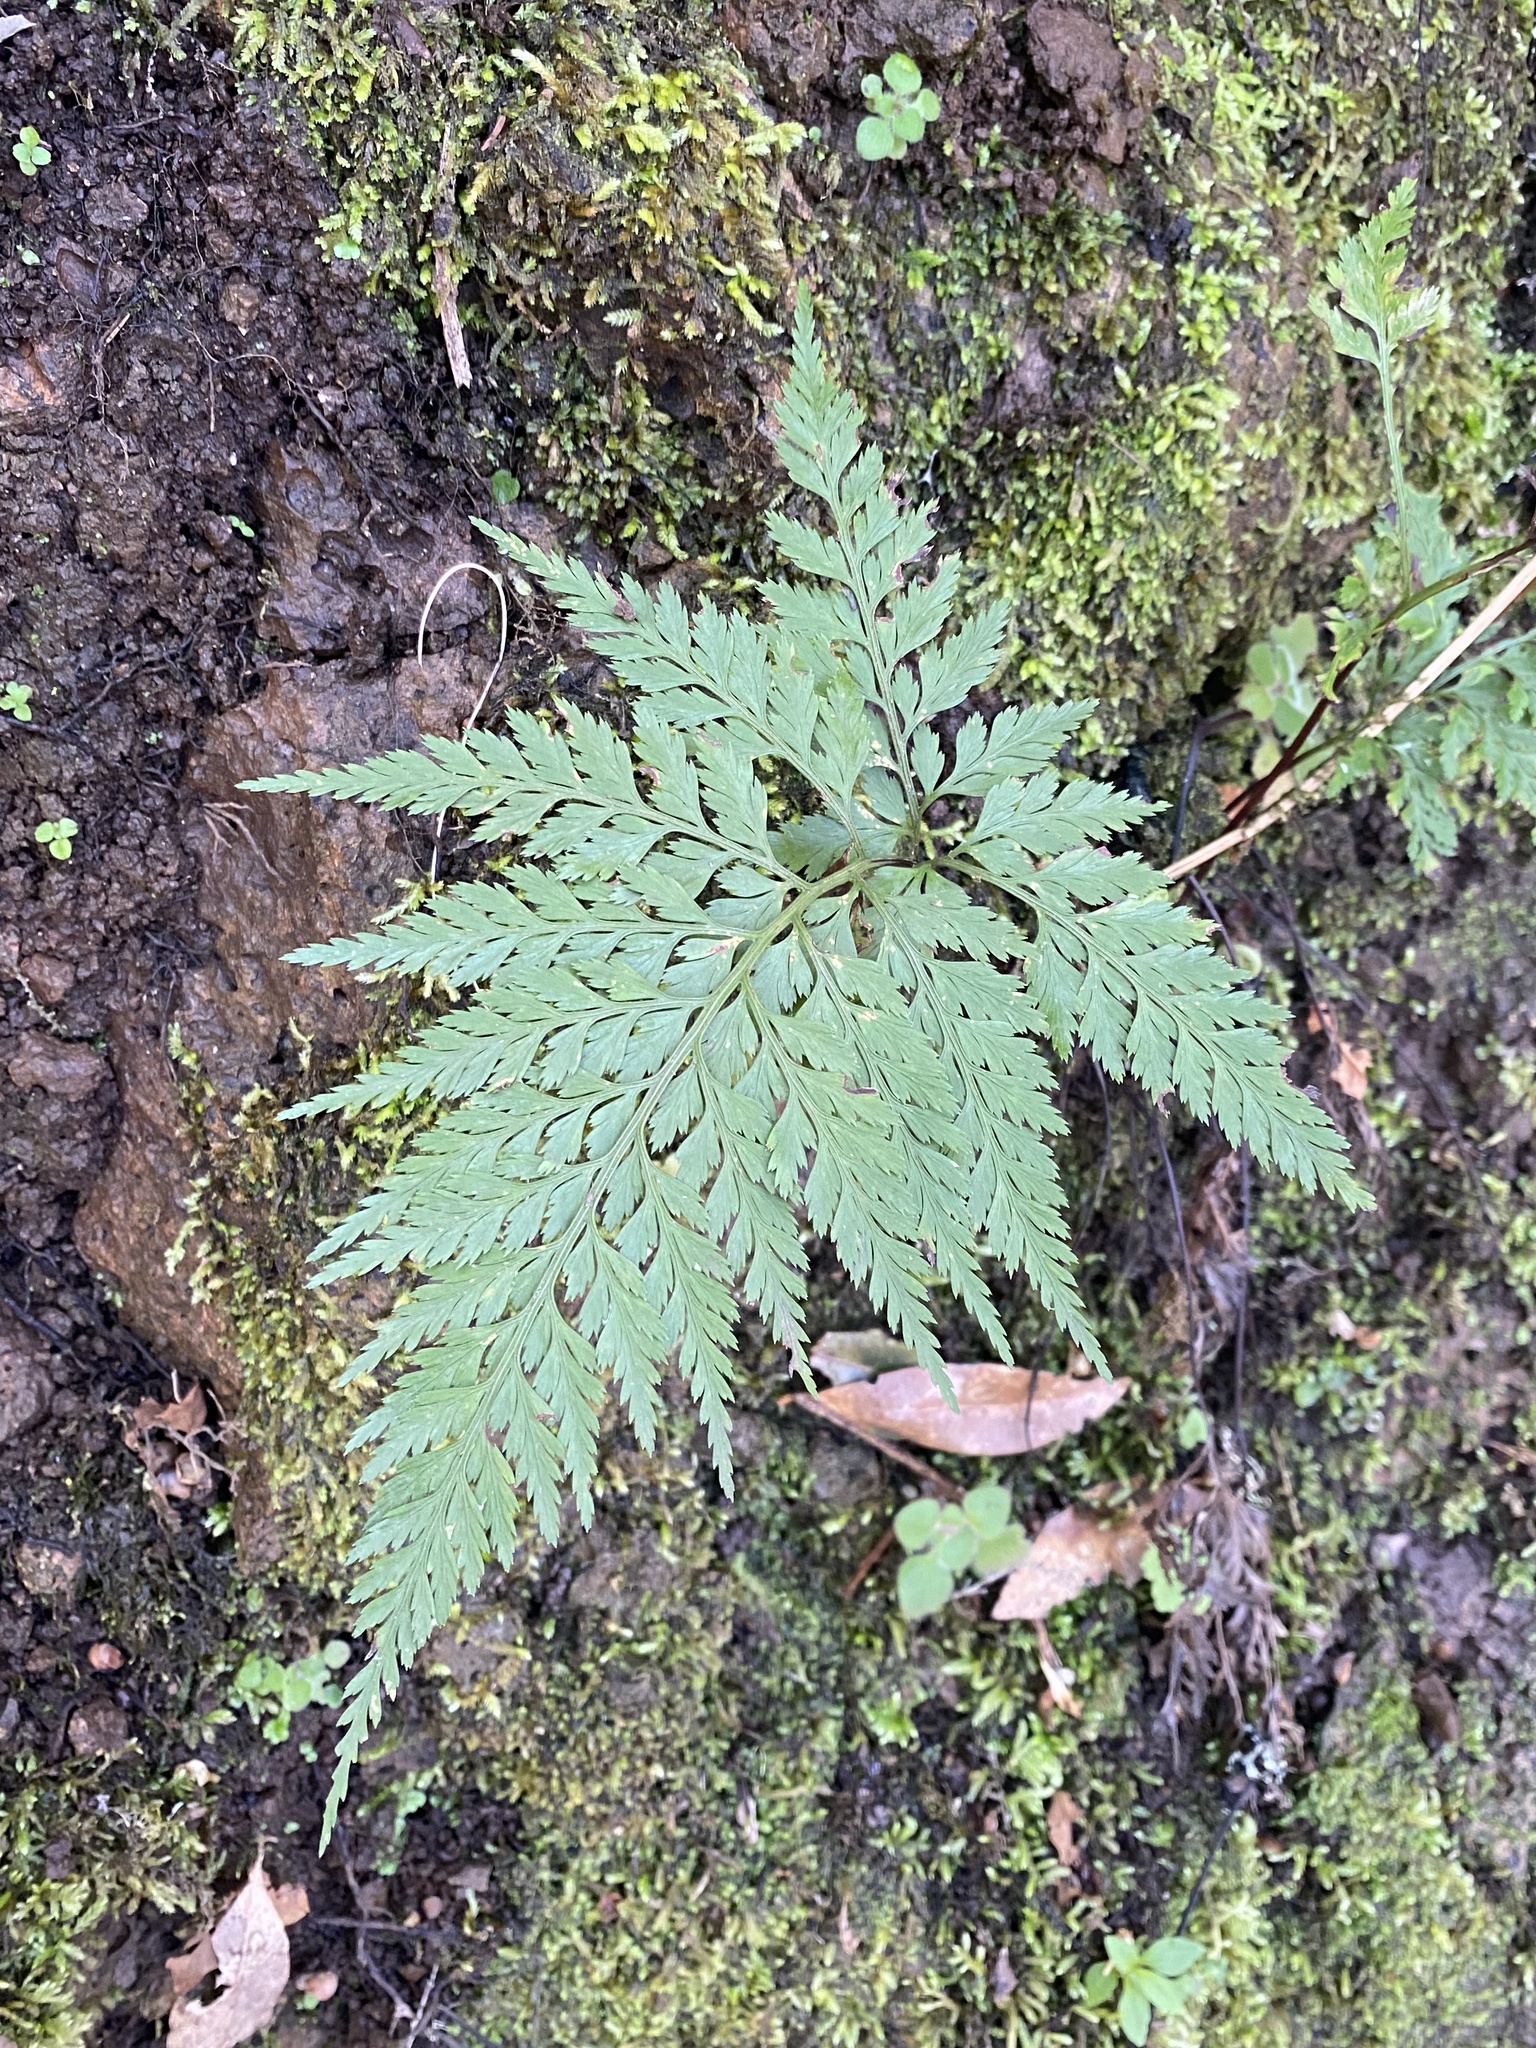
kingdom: Plantae
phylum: Tracheophyta
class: Polypodiopsida
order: Polypodiales
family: Aspleniaceae
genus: Asplenium
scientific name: Asplenium onopteris
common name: Irish spleenwort
